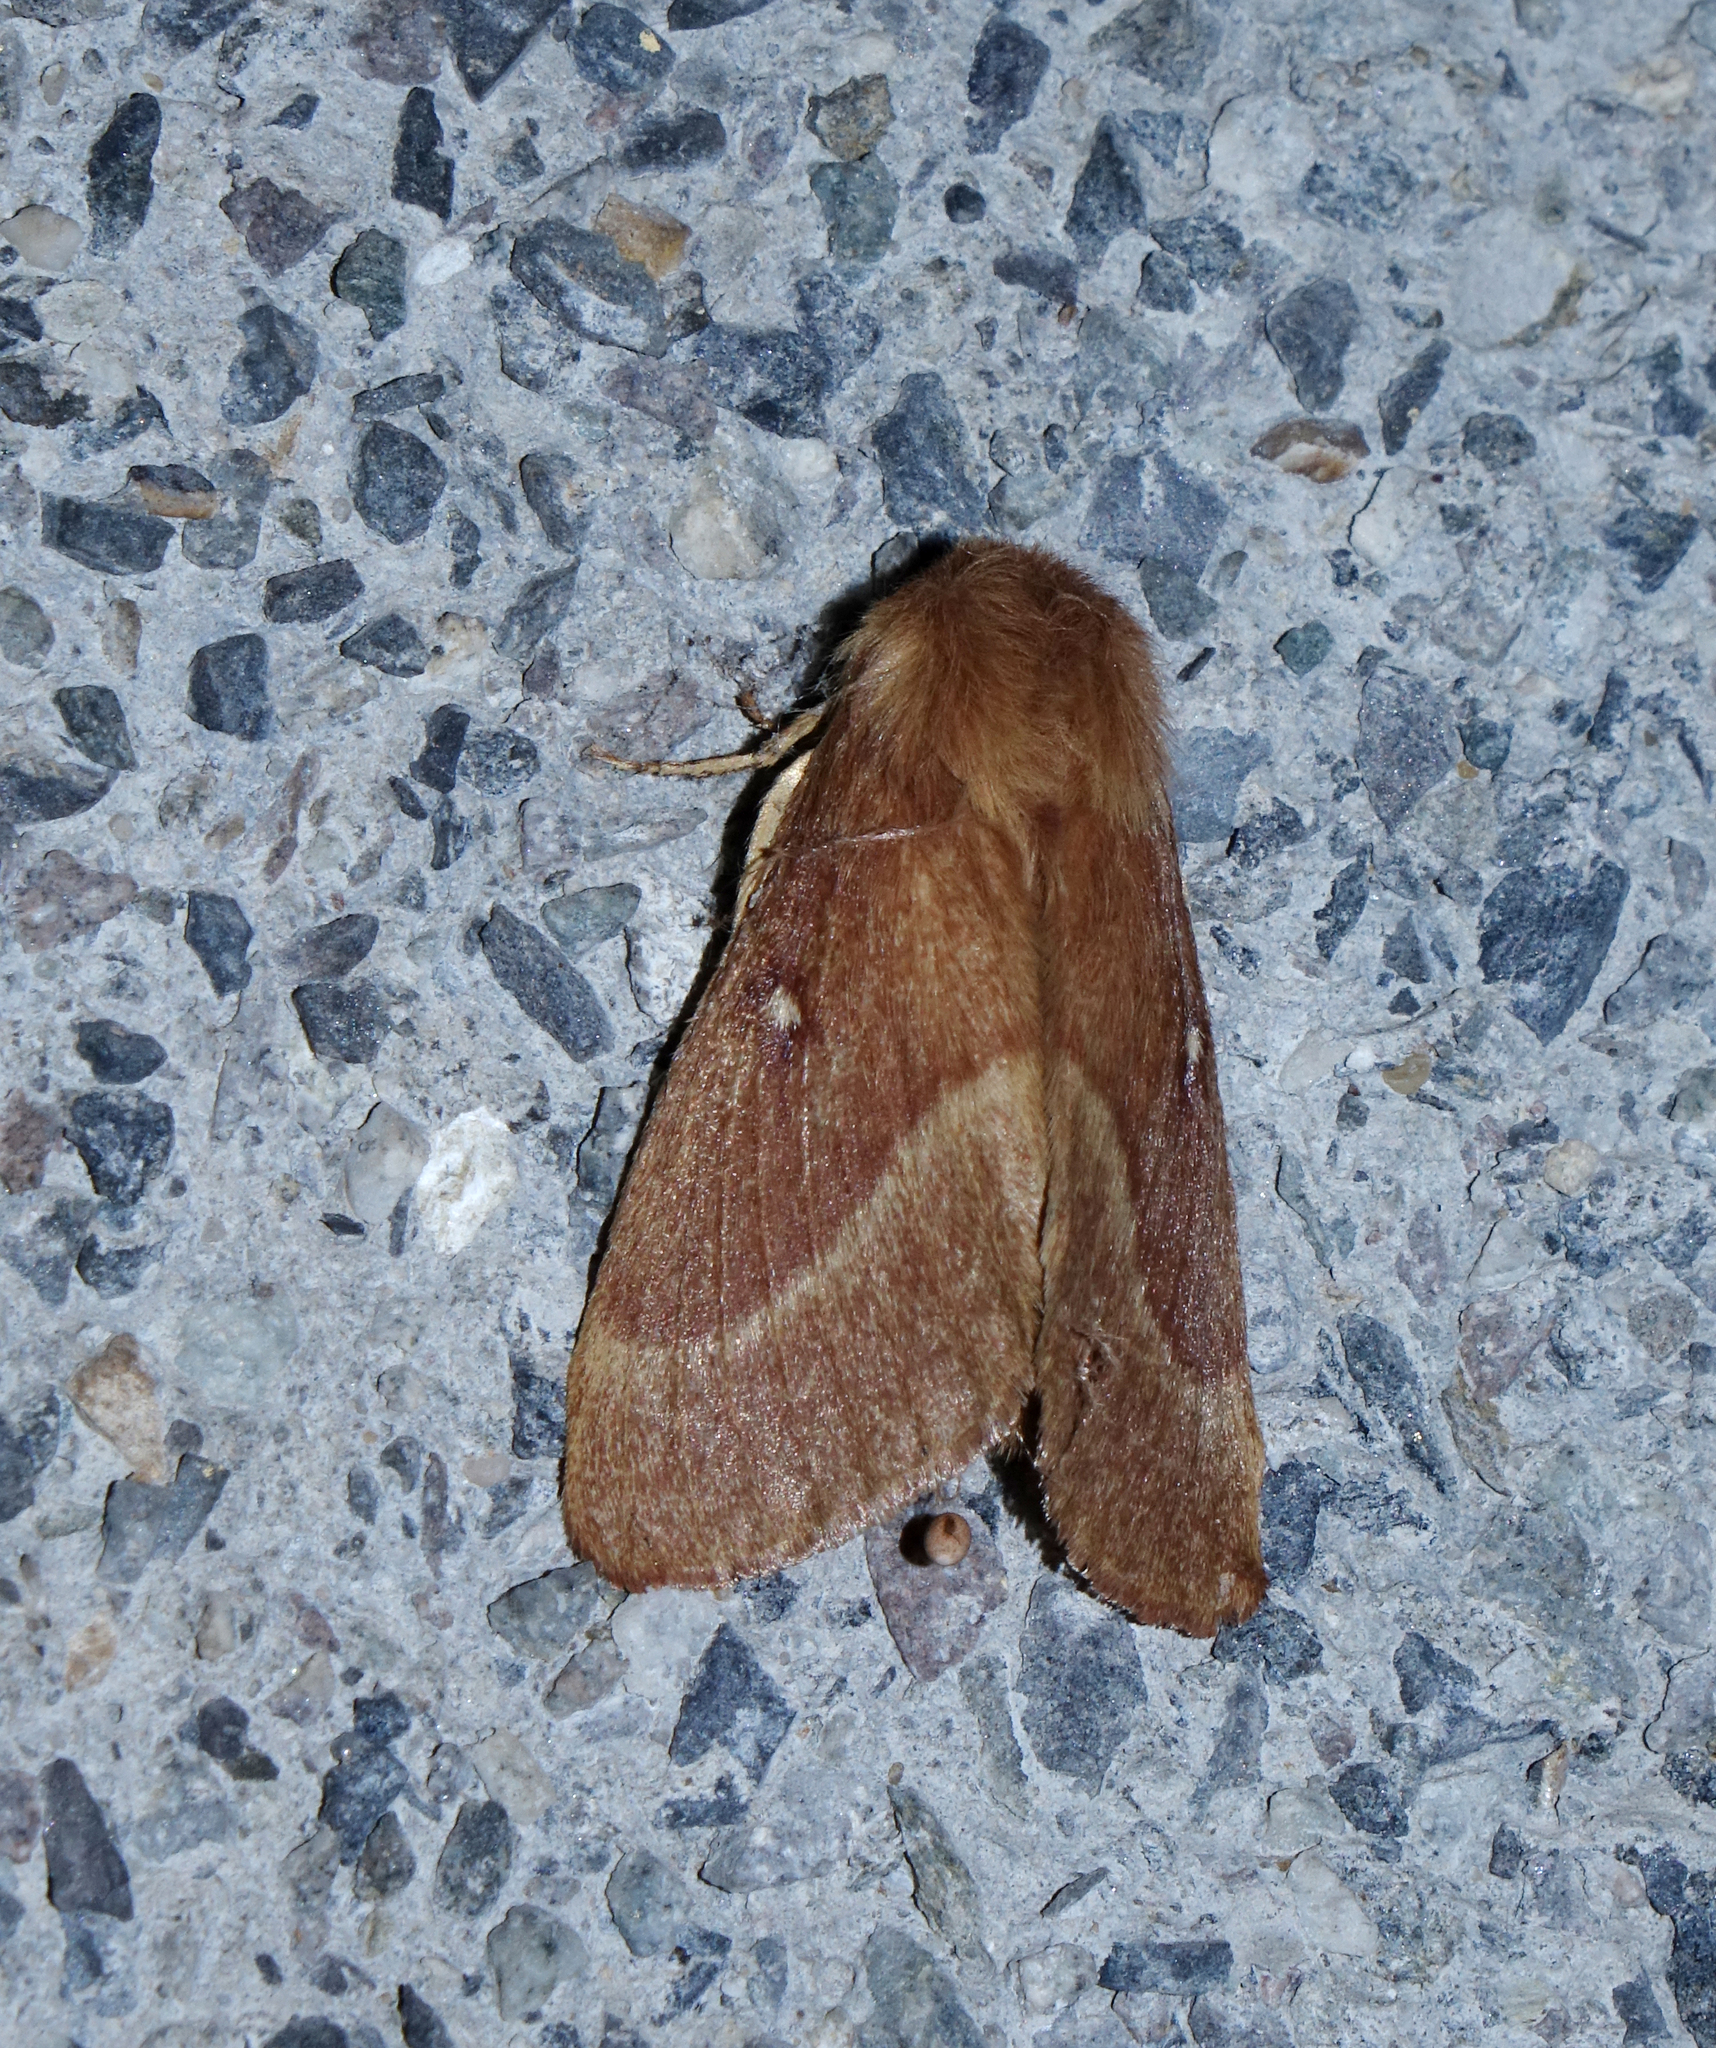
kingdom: Animalia
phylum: Arthropoda
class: Insecta
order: Lepidoptera
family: Lasiocampidae
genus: Lasiocampa
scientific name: Lasiocampa trifolii
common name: Grass eggar
